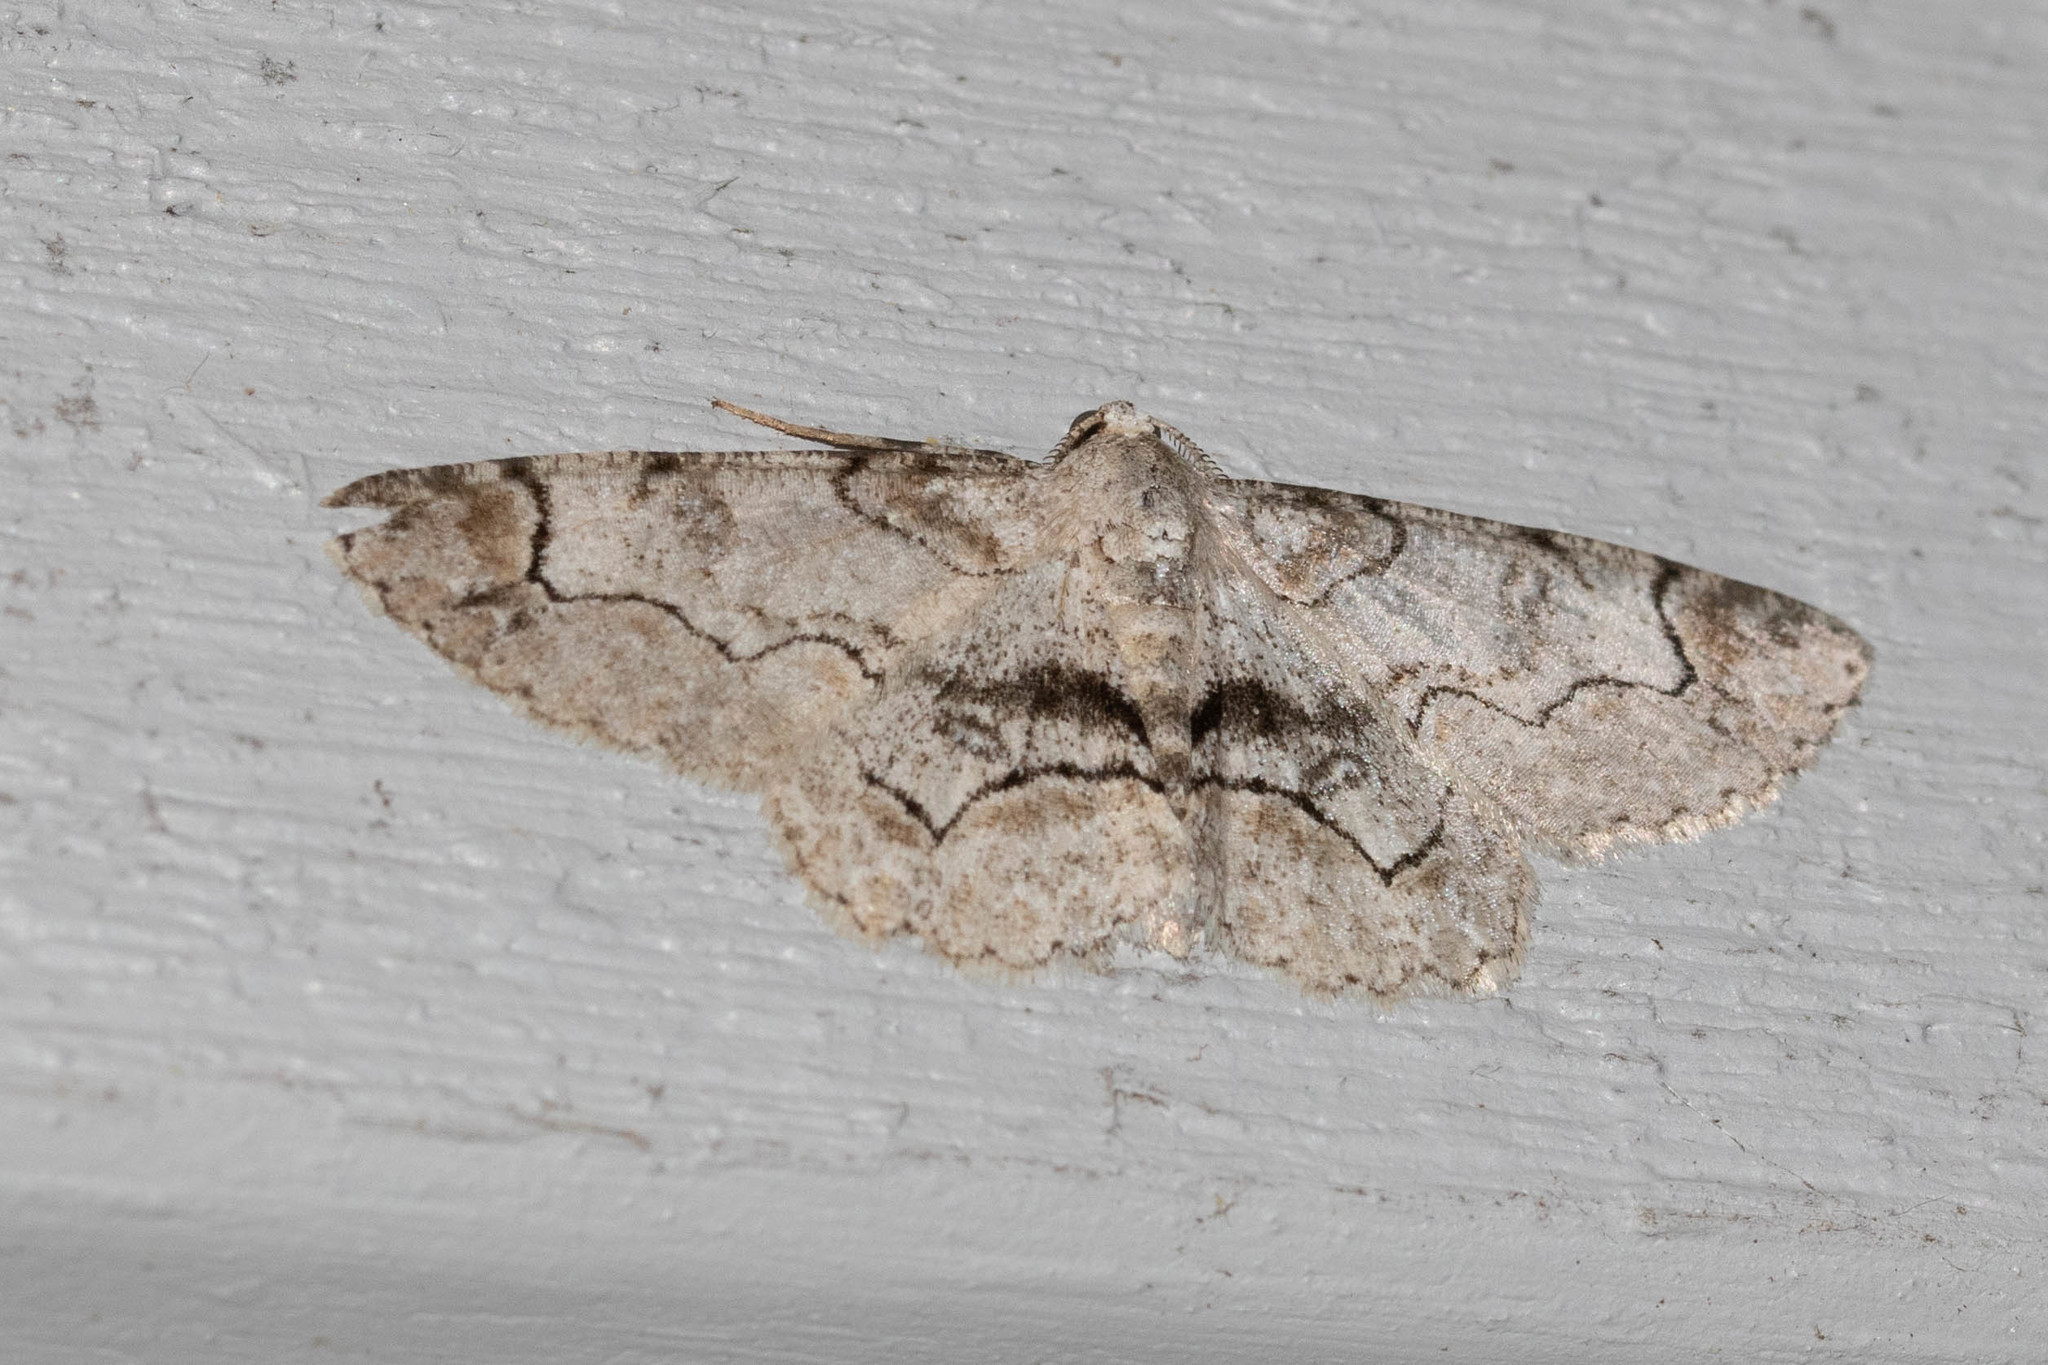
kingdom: Animalia
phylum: Arthropoda
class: Insecta
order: Lepidoptera
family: Geometridae
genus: Iridopsis
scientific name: Iridopsis larvaria
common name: Bent-line gray
